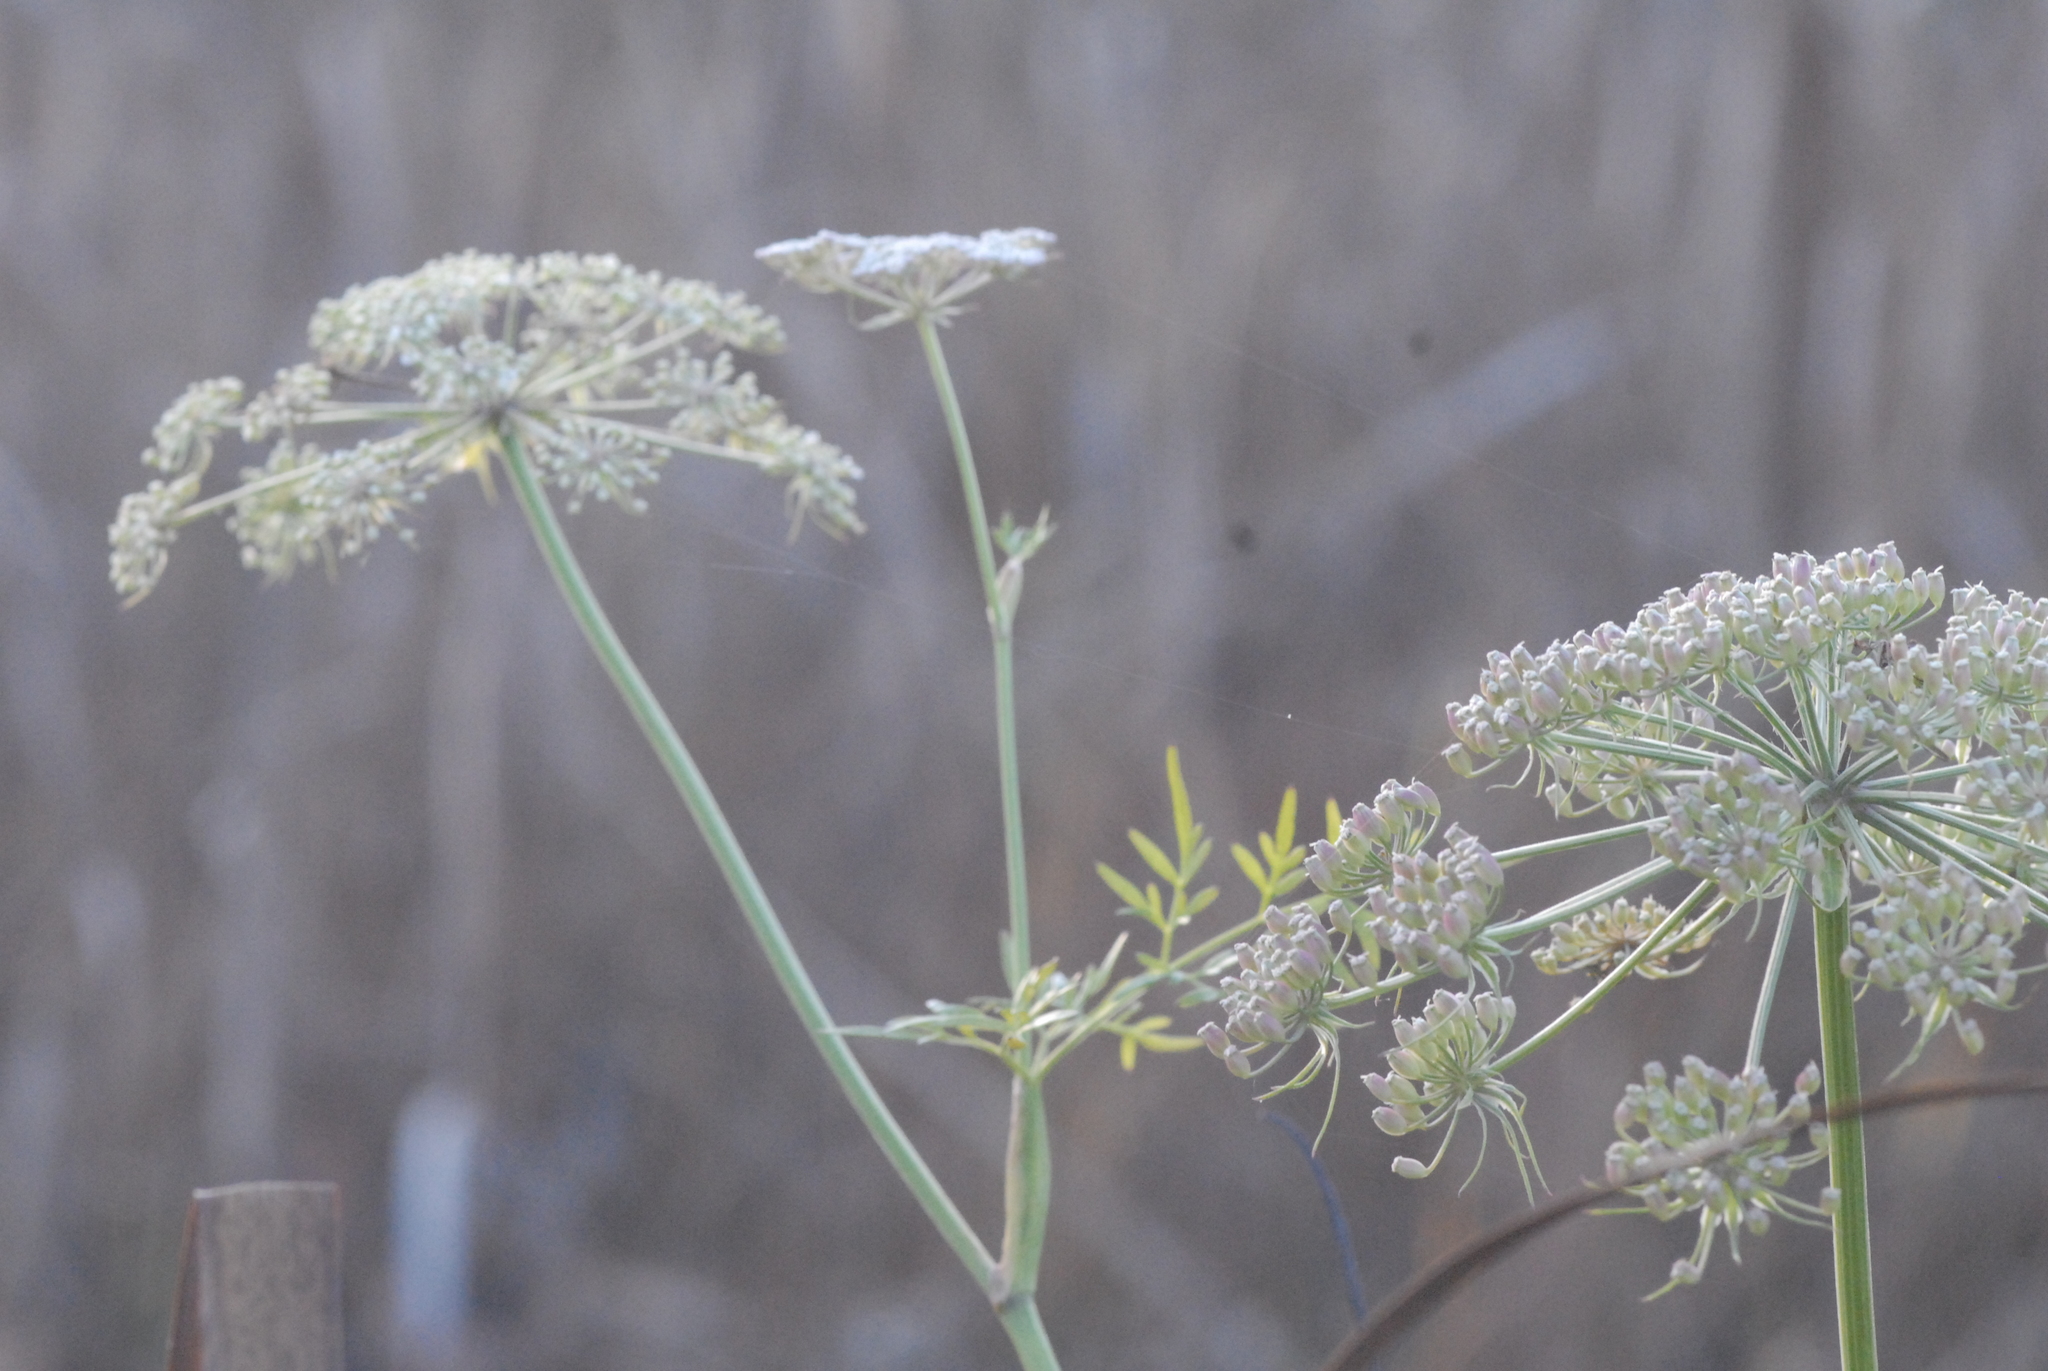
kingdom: Plantae
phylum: Tracheophyta
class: Magnoliopsida
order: Apiales
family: Apiaceae
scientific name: Apiaceae
